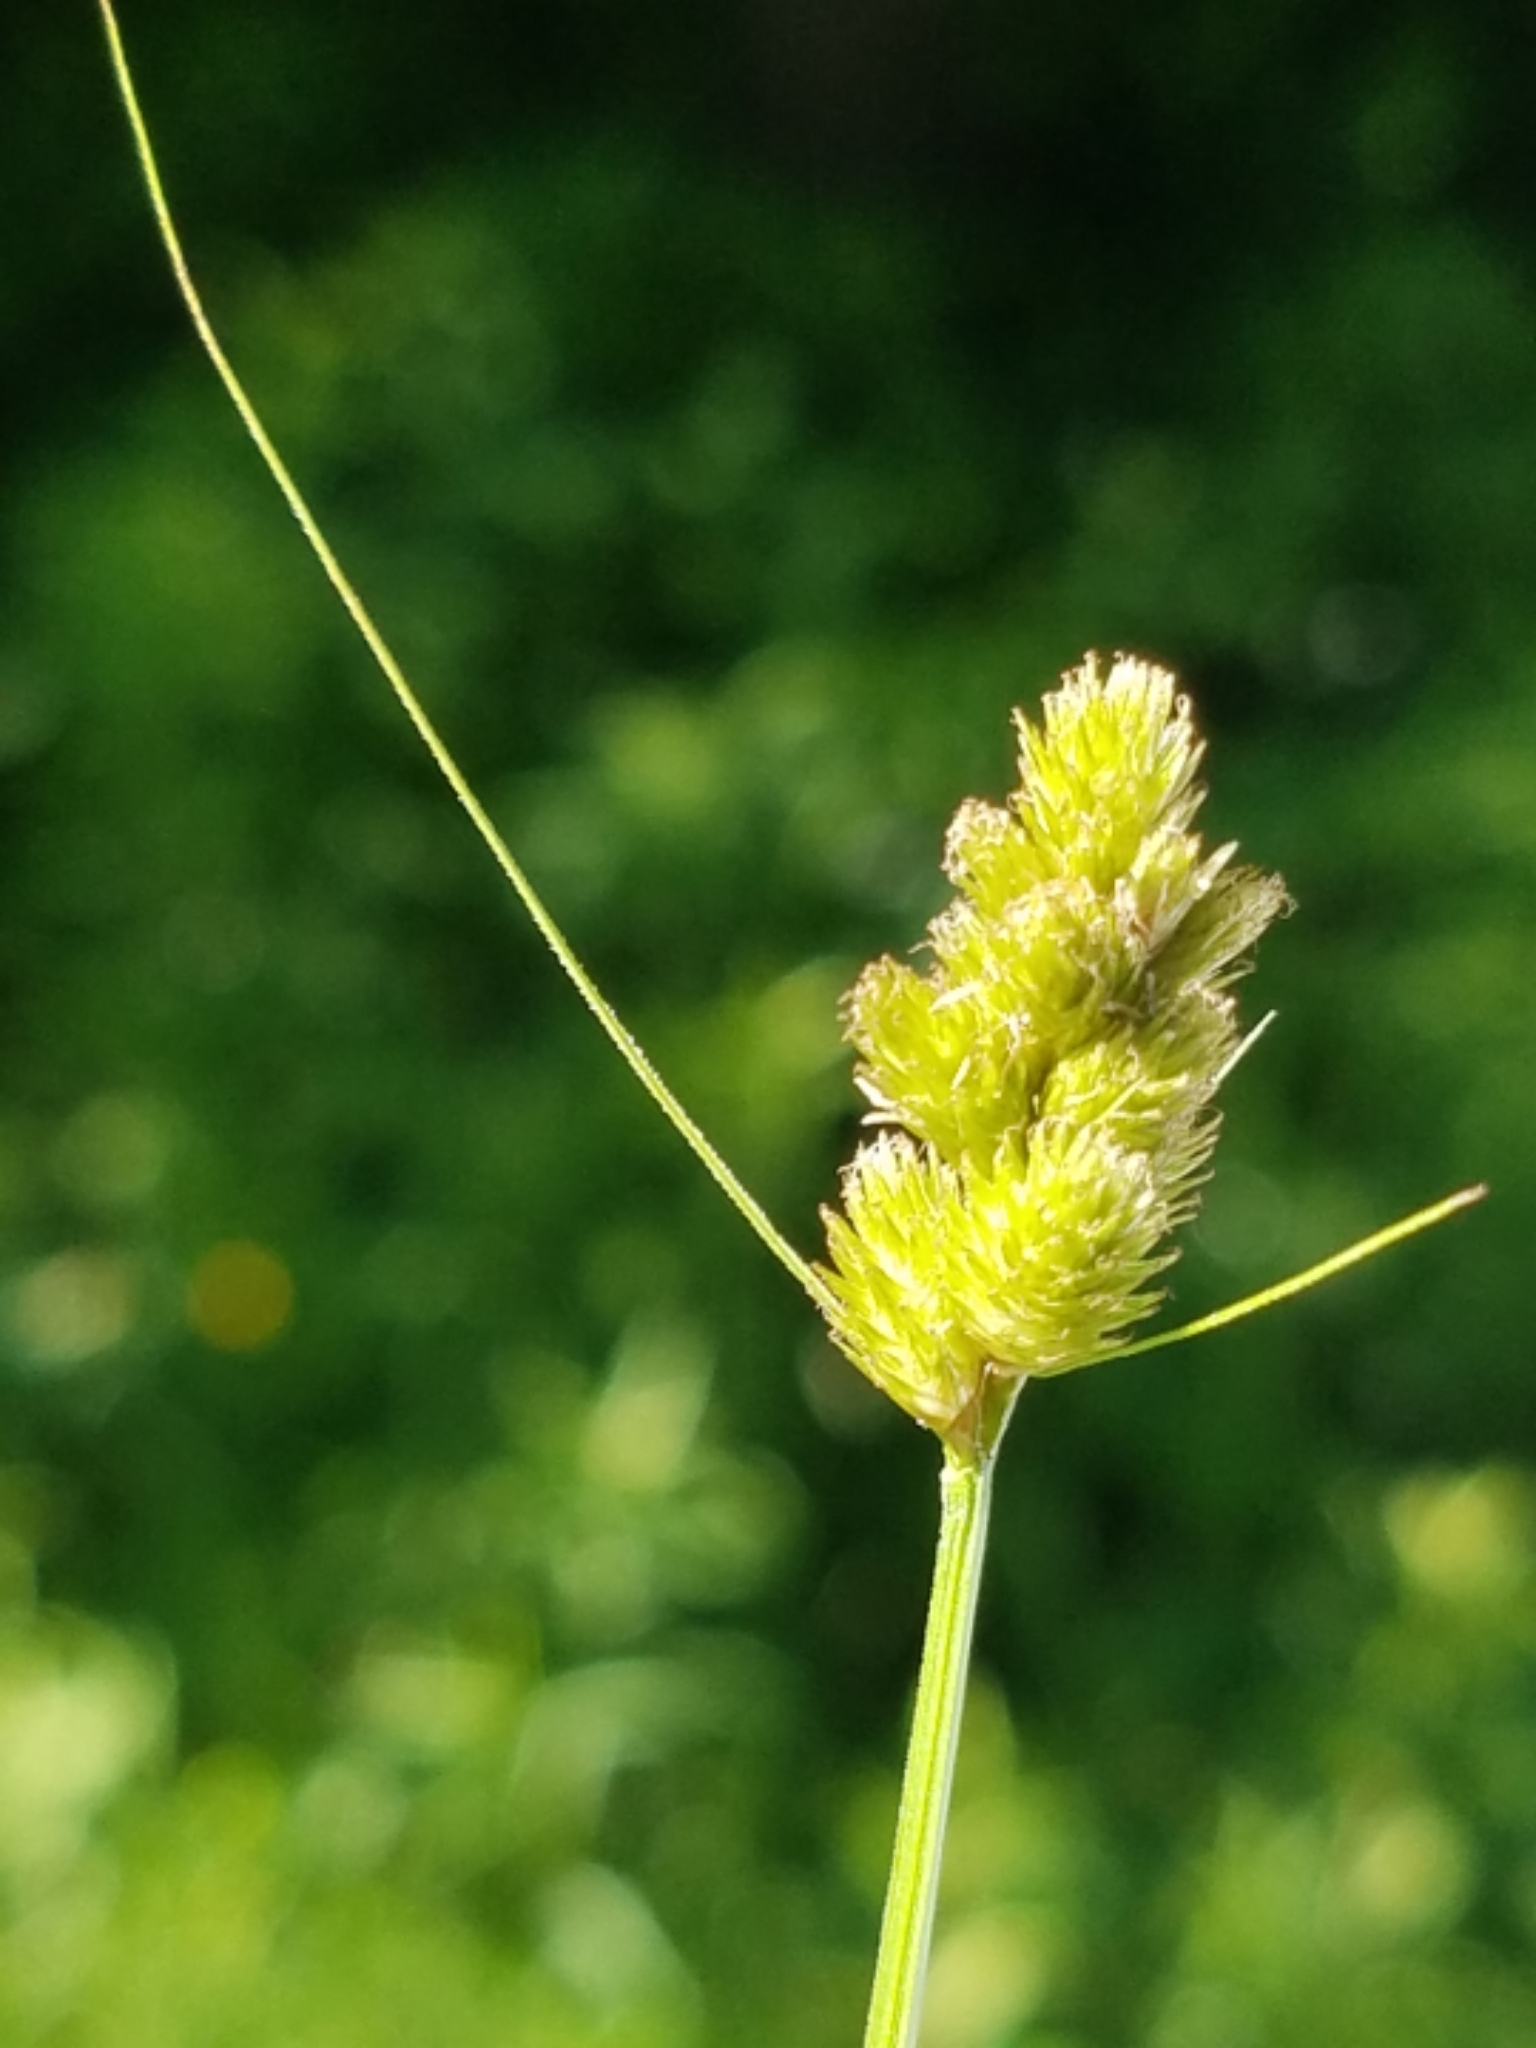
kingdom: Plantae
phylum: Tracheophyta
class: Liliopsida
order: Poales
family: Cyperaceae
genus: Carex
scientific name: Carex bebbii
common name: Bebb's sedge
